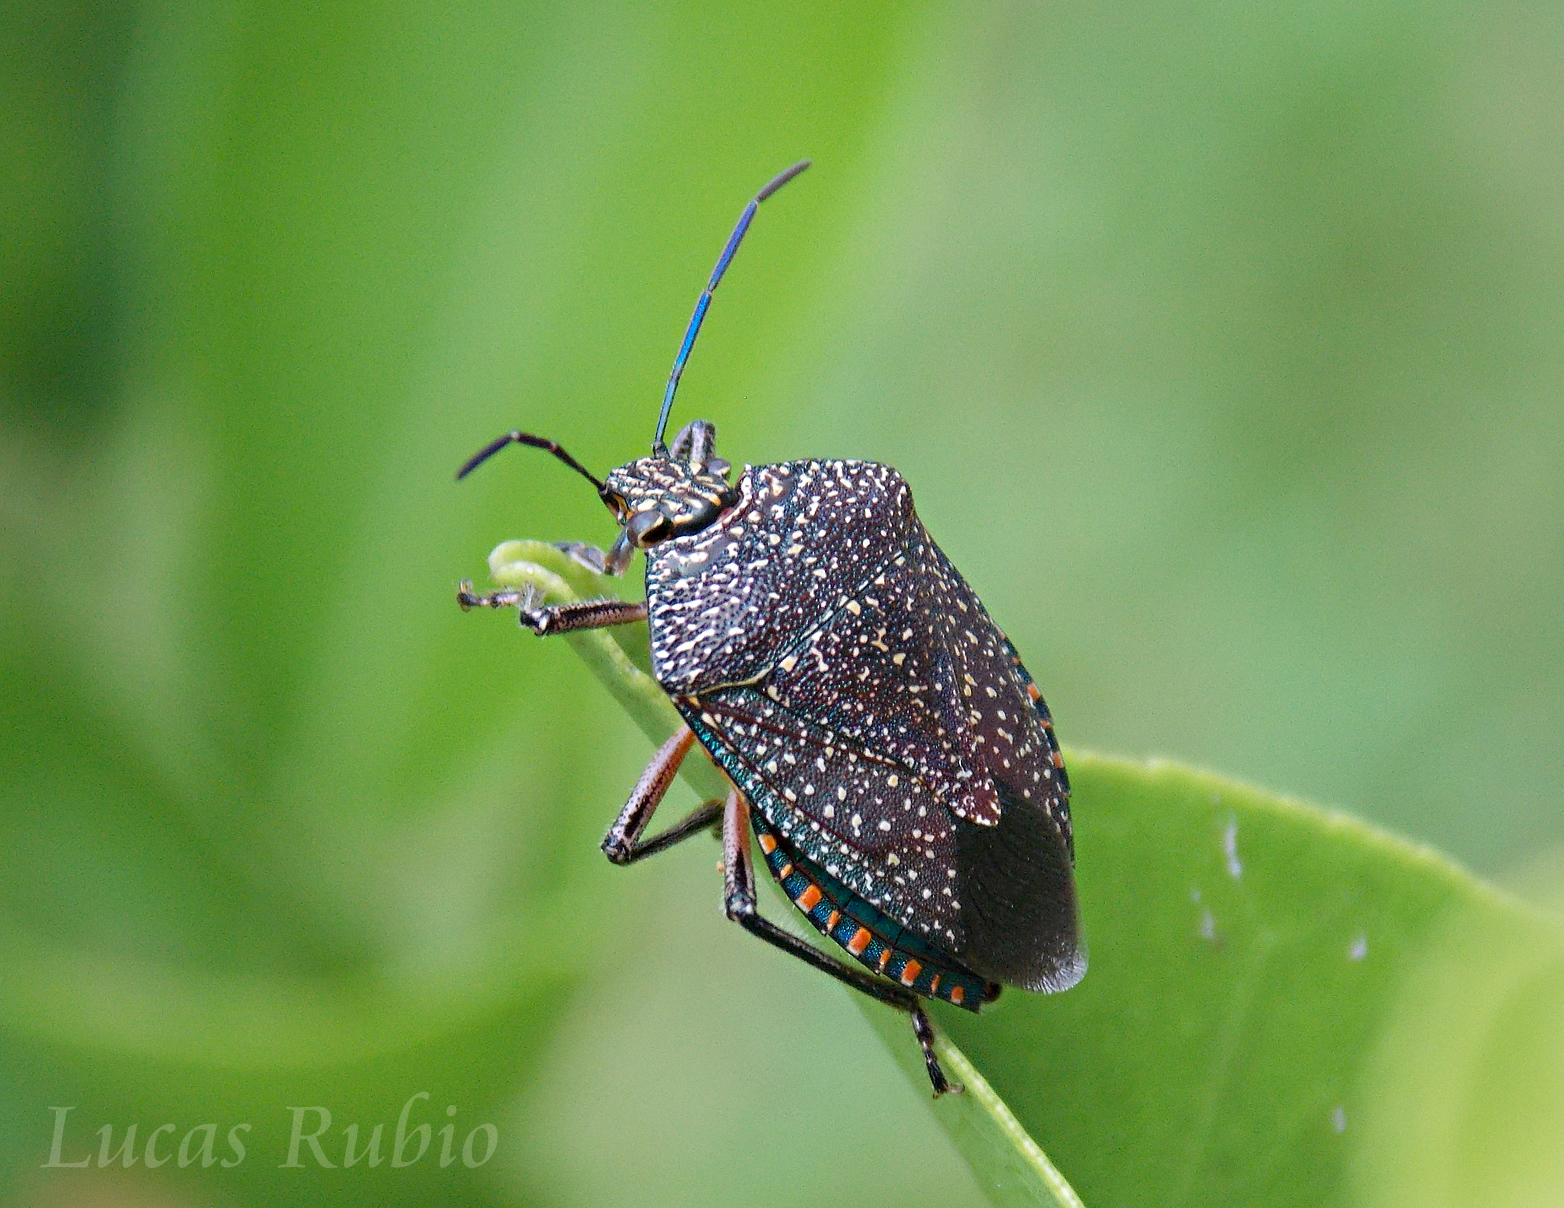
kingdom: Animalia
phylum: Arthropoda
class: Insecta
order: Hemiptera
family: Pentatomidae
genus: Pellaea
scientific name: Pellaea stictica
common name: Stink bug
